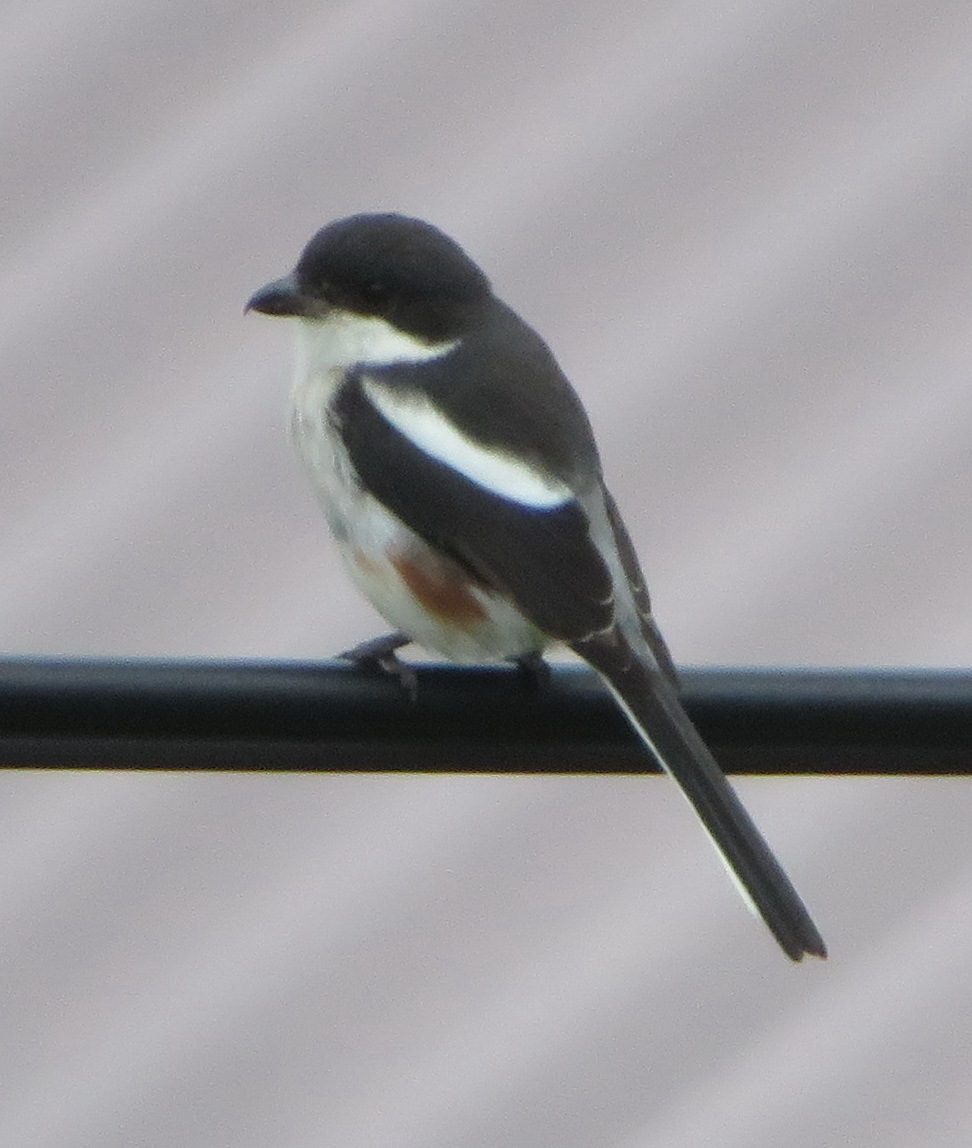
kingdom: Animalia
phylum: Chordata
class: Aves
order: Passeriformes
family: Laniidae
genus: Lanius
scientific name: Lanius collaris
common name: Southern fiscal
